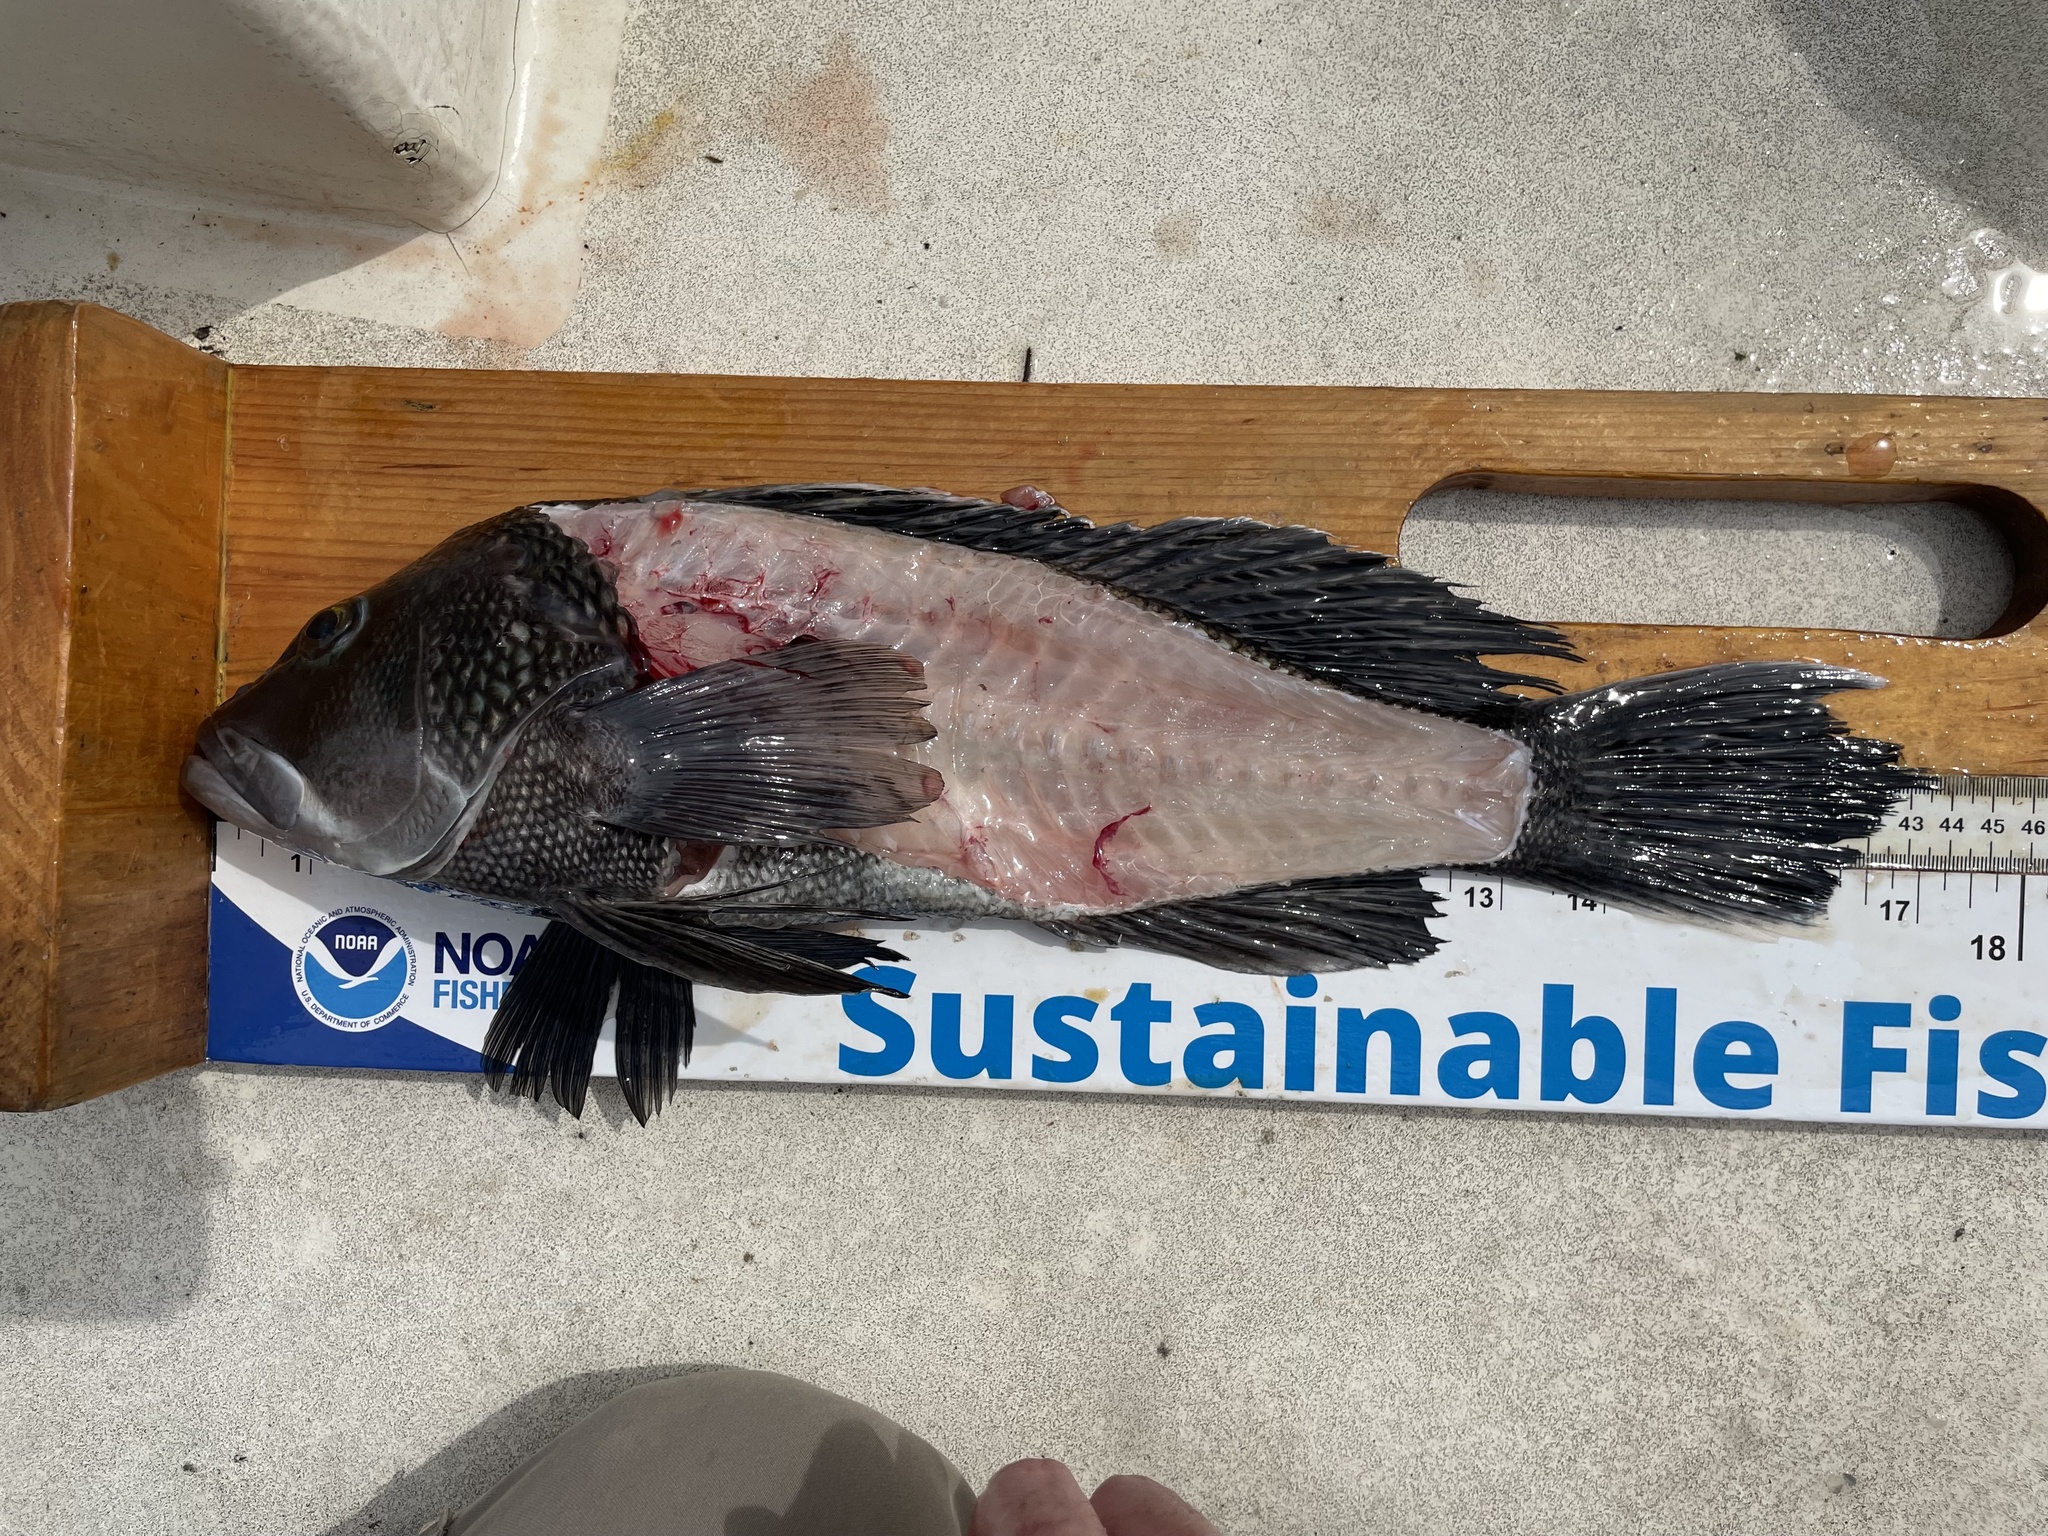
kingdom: Animalia
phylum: Chordata
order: Perciformes
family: Serranidae
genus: Centropristis
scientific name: Centropristis striata
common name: Black sea bass
